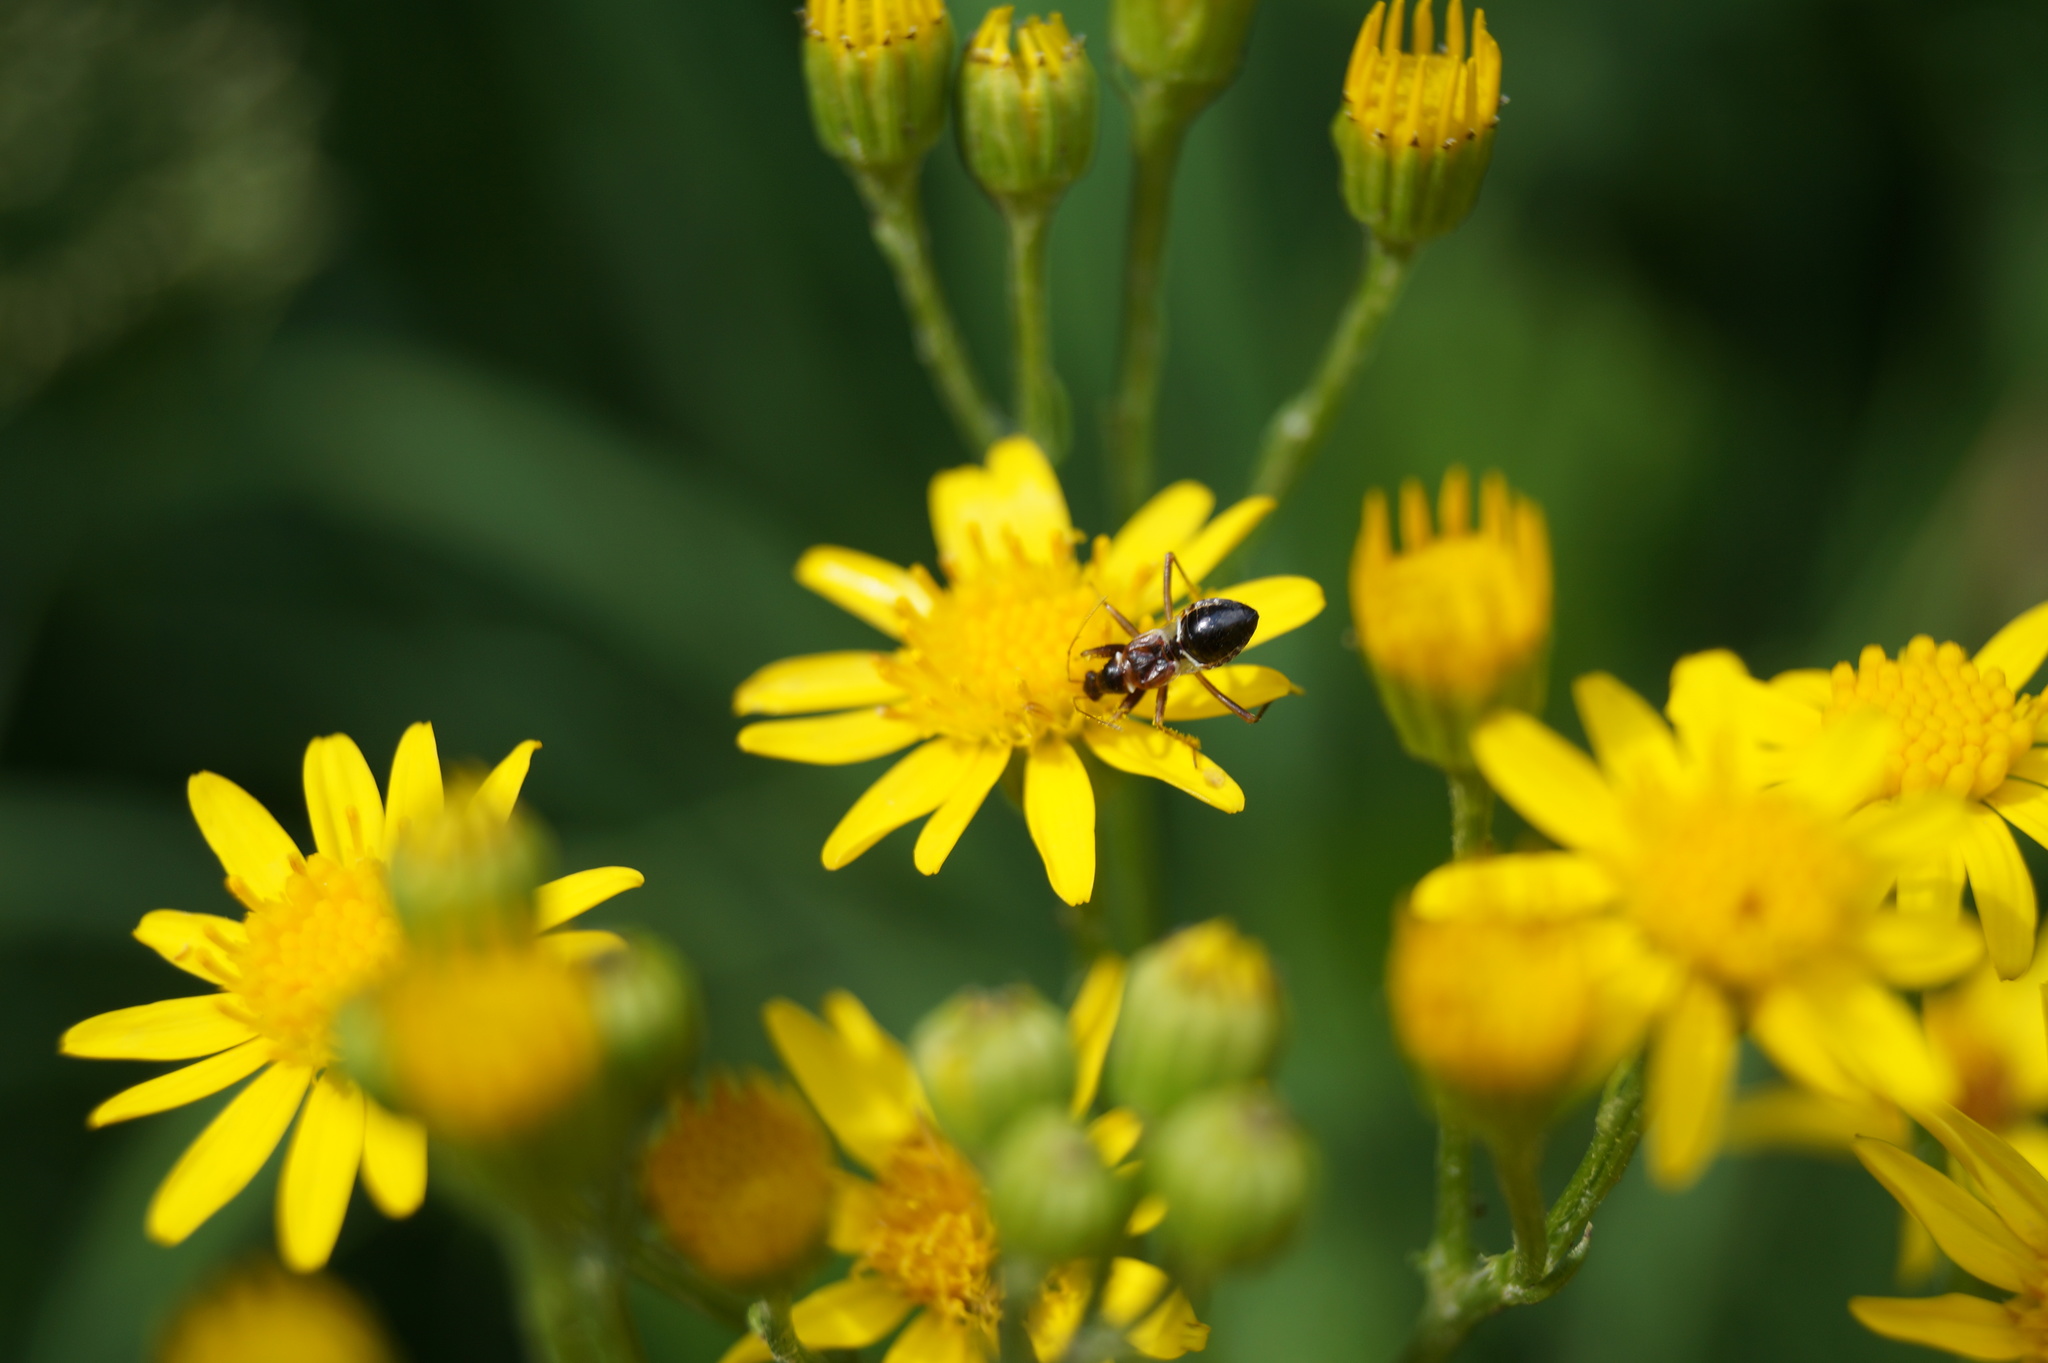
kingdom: Animalia
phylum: Arthropoda
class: Insecta
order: Hemiptera
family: Nabidae
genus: Himacerus
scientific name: Himacerus mirmicoides
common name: Ant damsel bug
